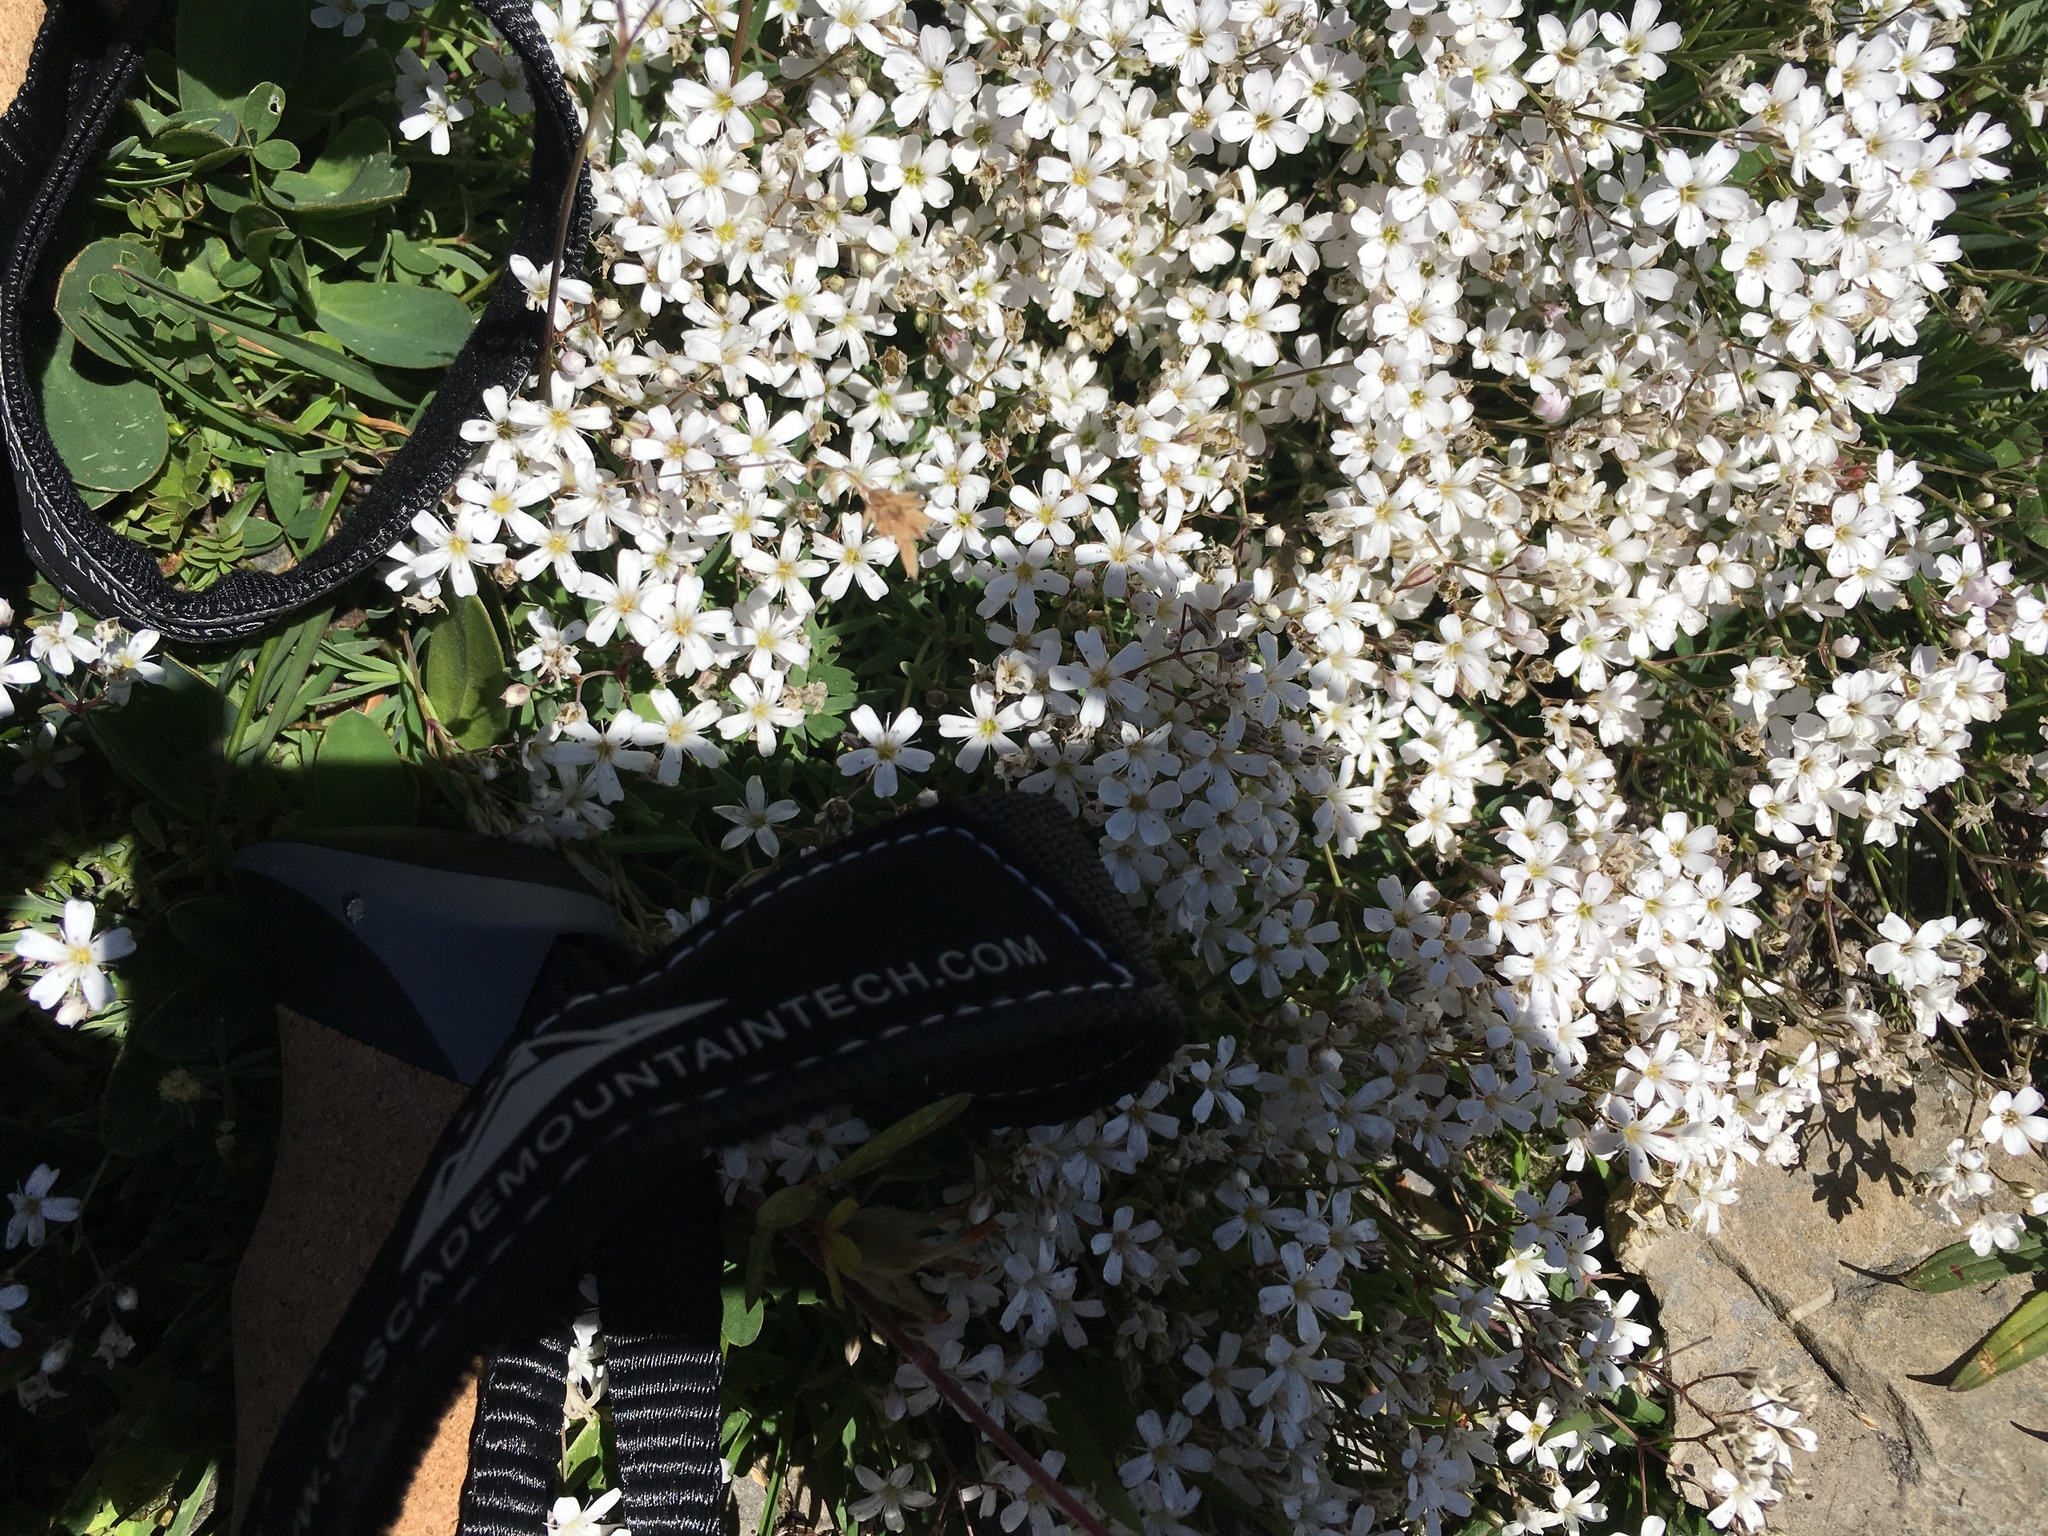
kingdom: Plantae
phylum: Tracheophyta
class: Magnoliopsida
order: Caryophyllales
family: Caryophyllaceae
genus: Gypsophila
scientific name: Gypsophila repens
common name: Creeping baby's-breath
